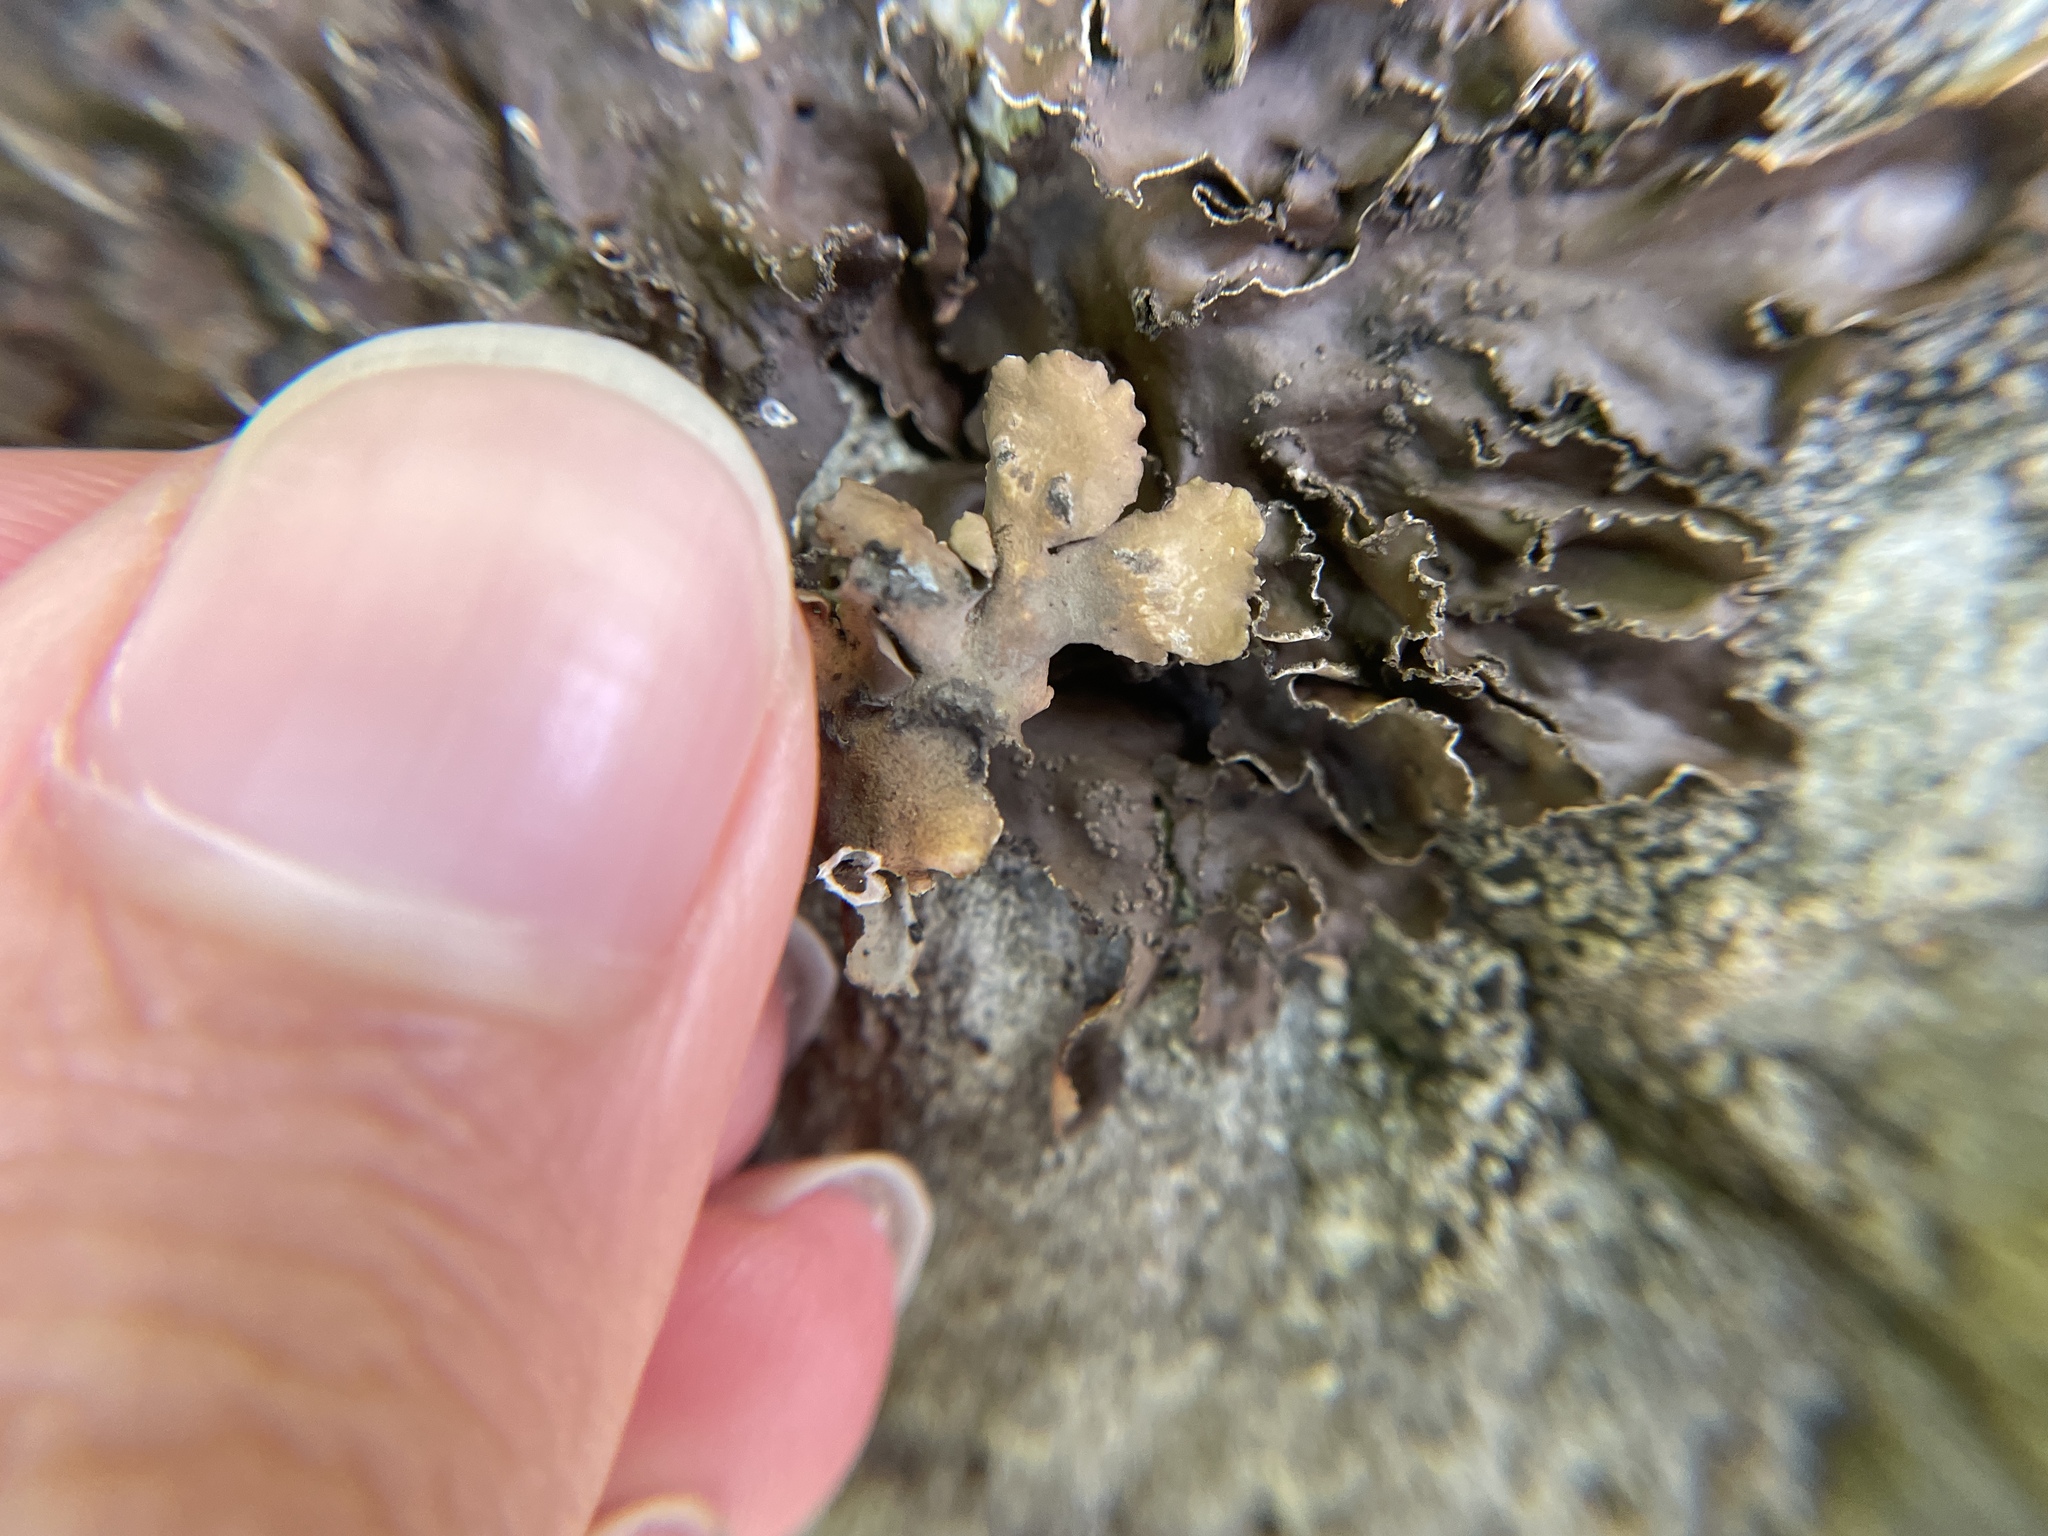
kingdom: Fungi
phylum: Ascomycota
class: Lecanoromycetes
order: Peltigerales
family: Nephromataceae
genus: Nephroma
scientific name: Nephroma parile
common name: Powdery kidney lichen
